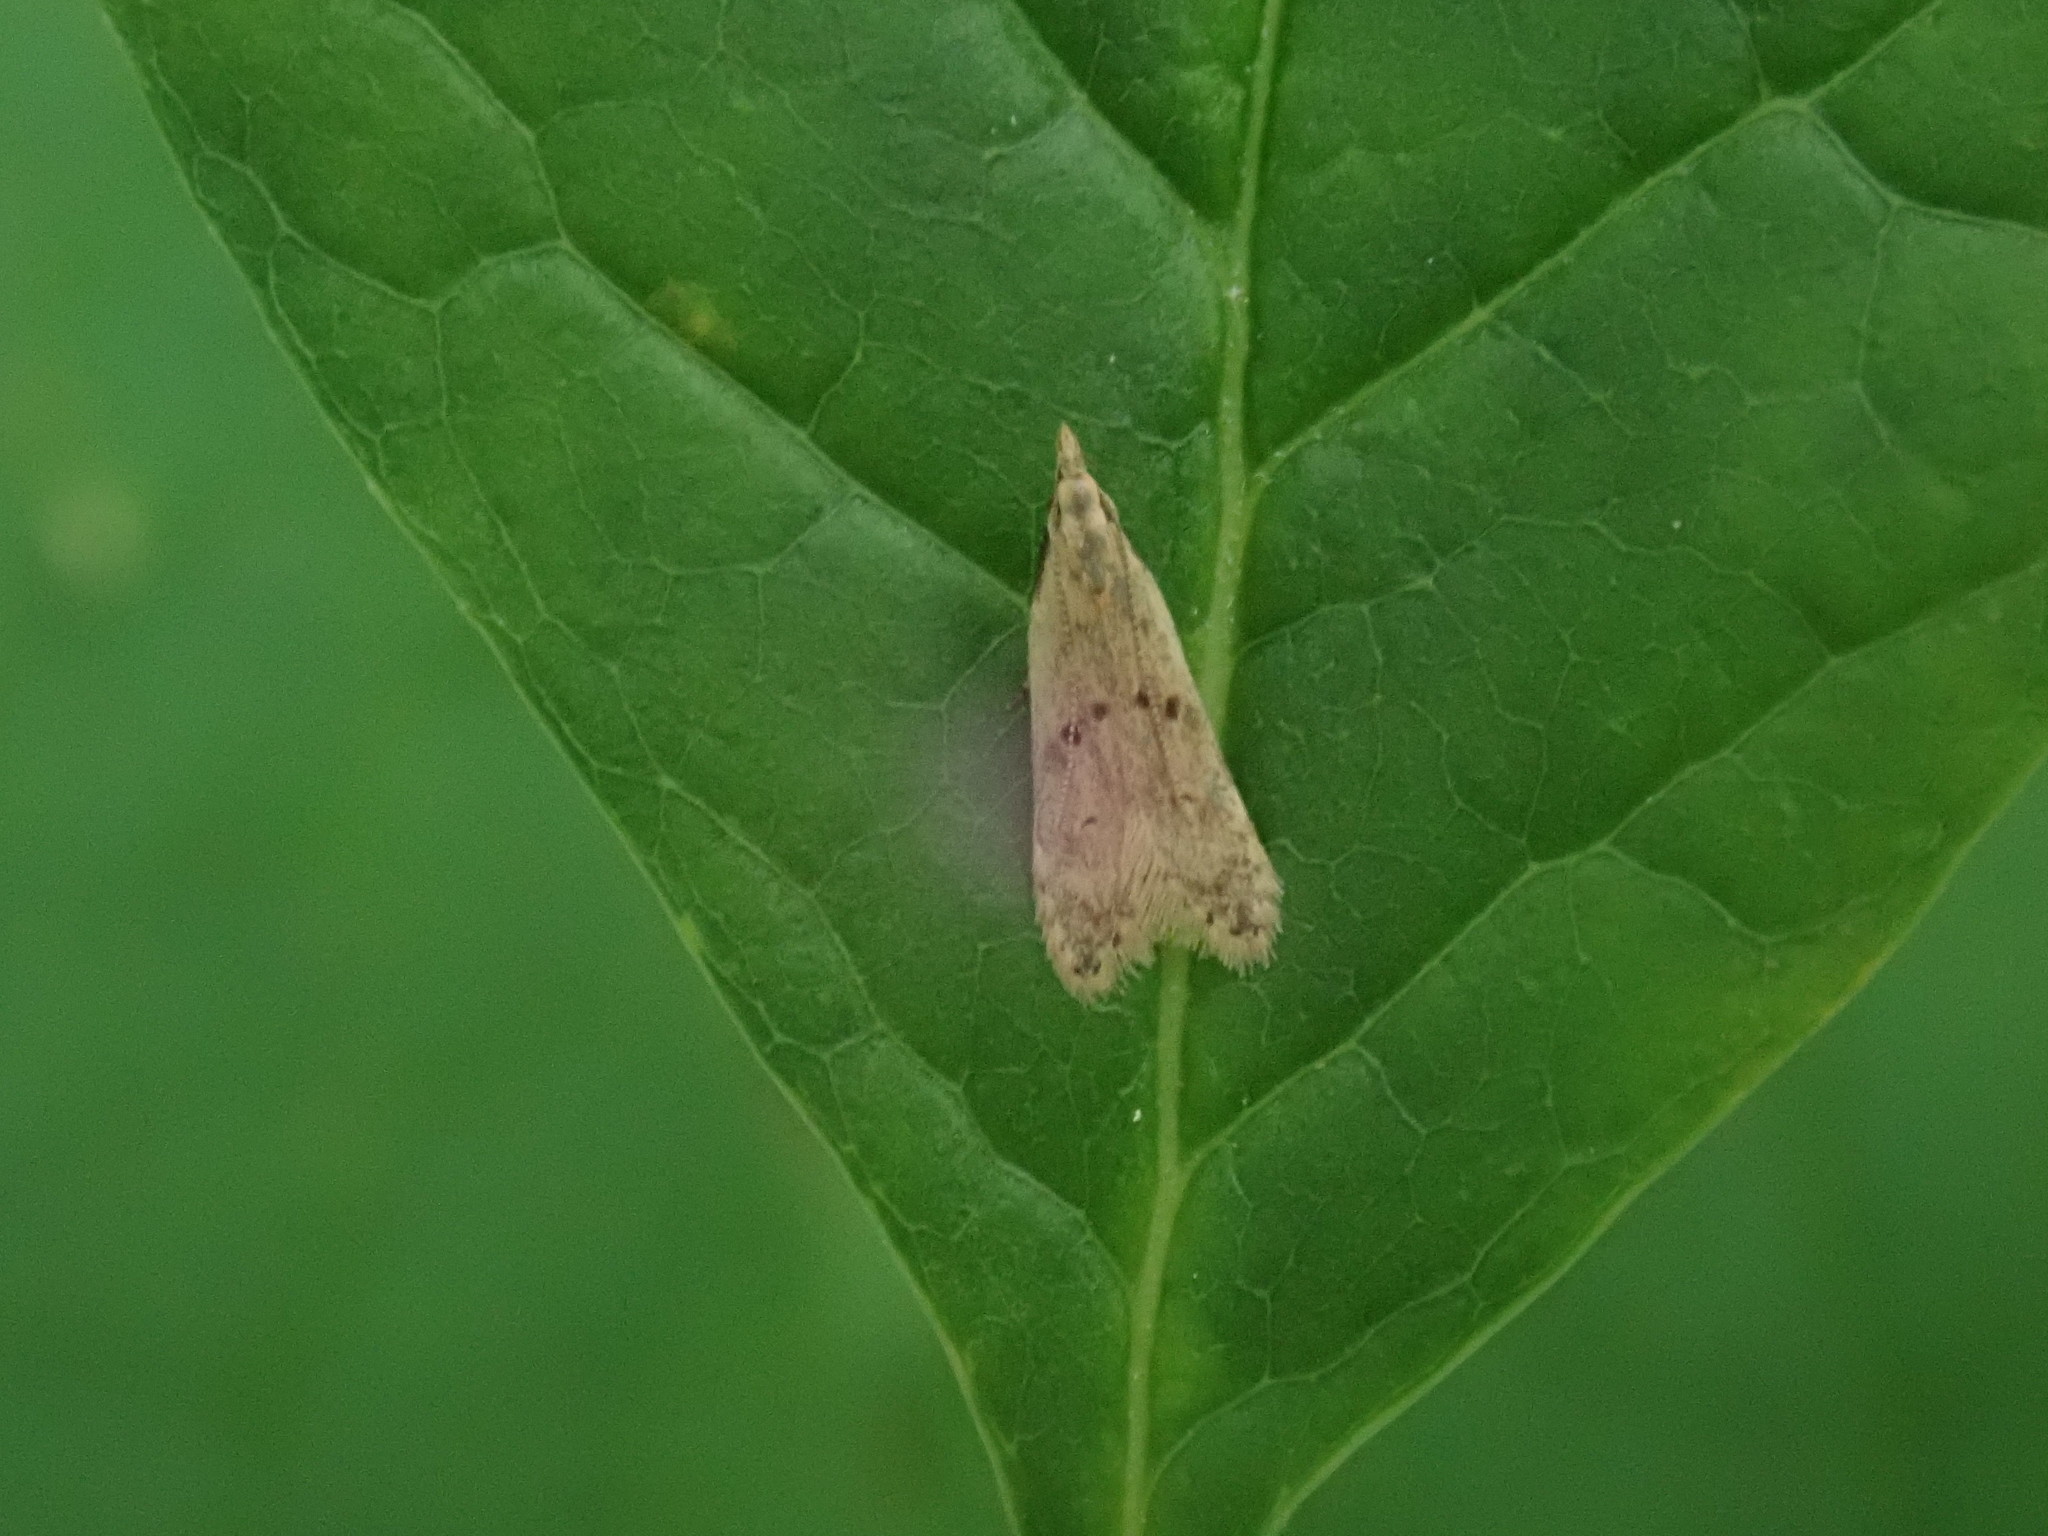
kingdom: Animalia
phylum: Arthropoda
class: Insecta
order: Lepidoptera
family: Gelechiidae
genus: Dichomeris
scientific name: Dichomeris punctipennella
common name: Many-spotted dichomeris moth
